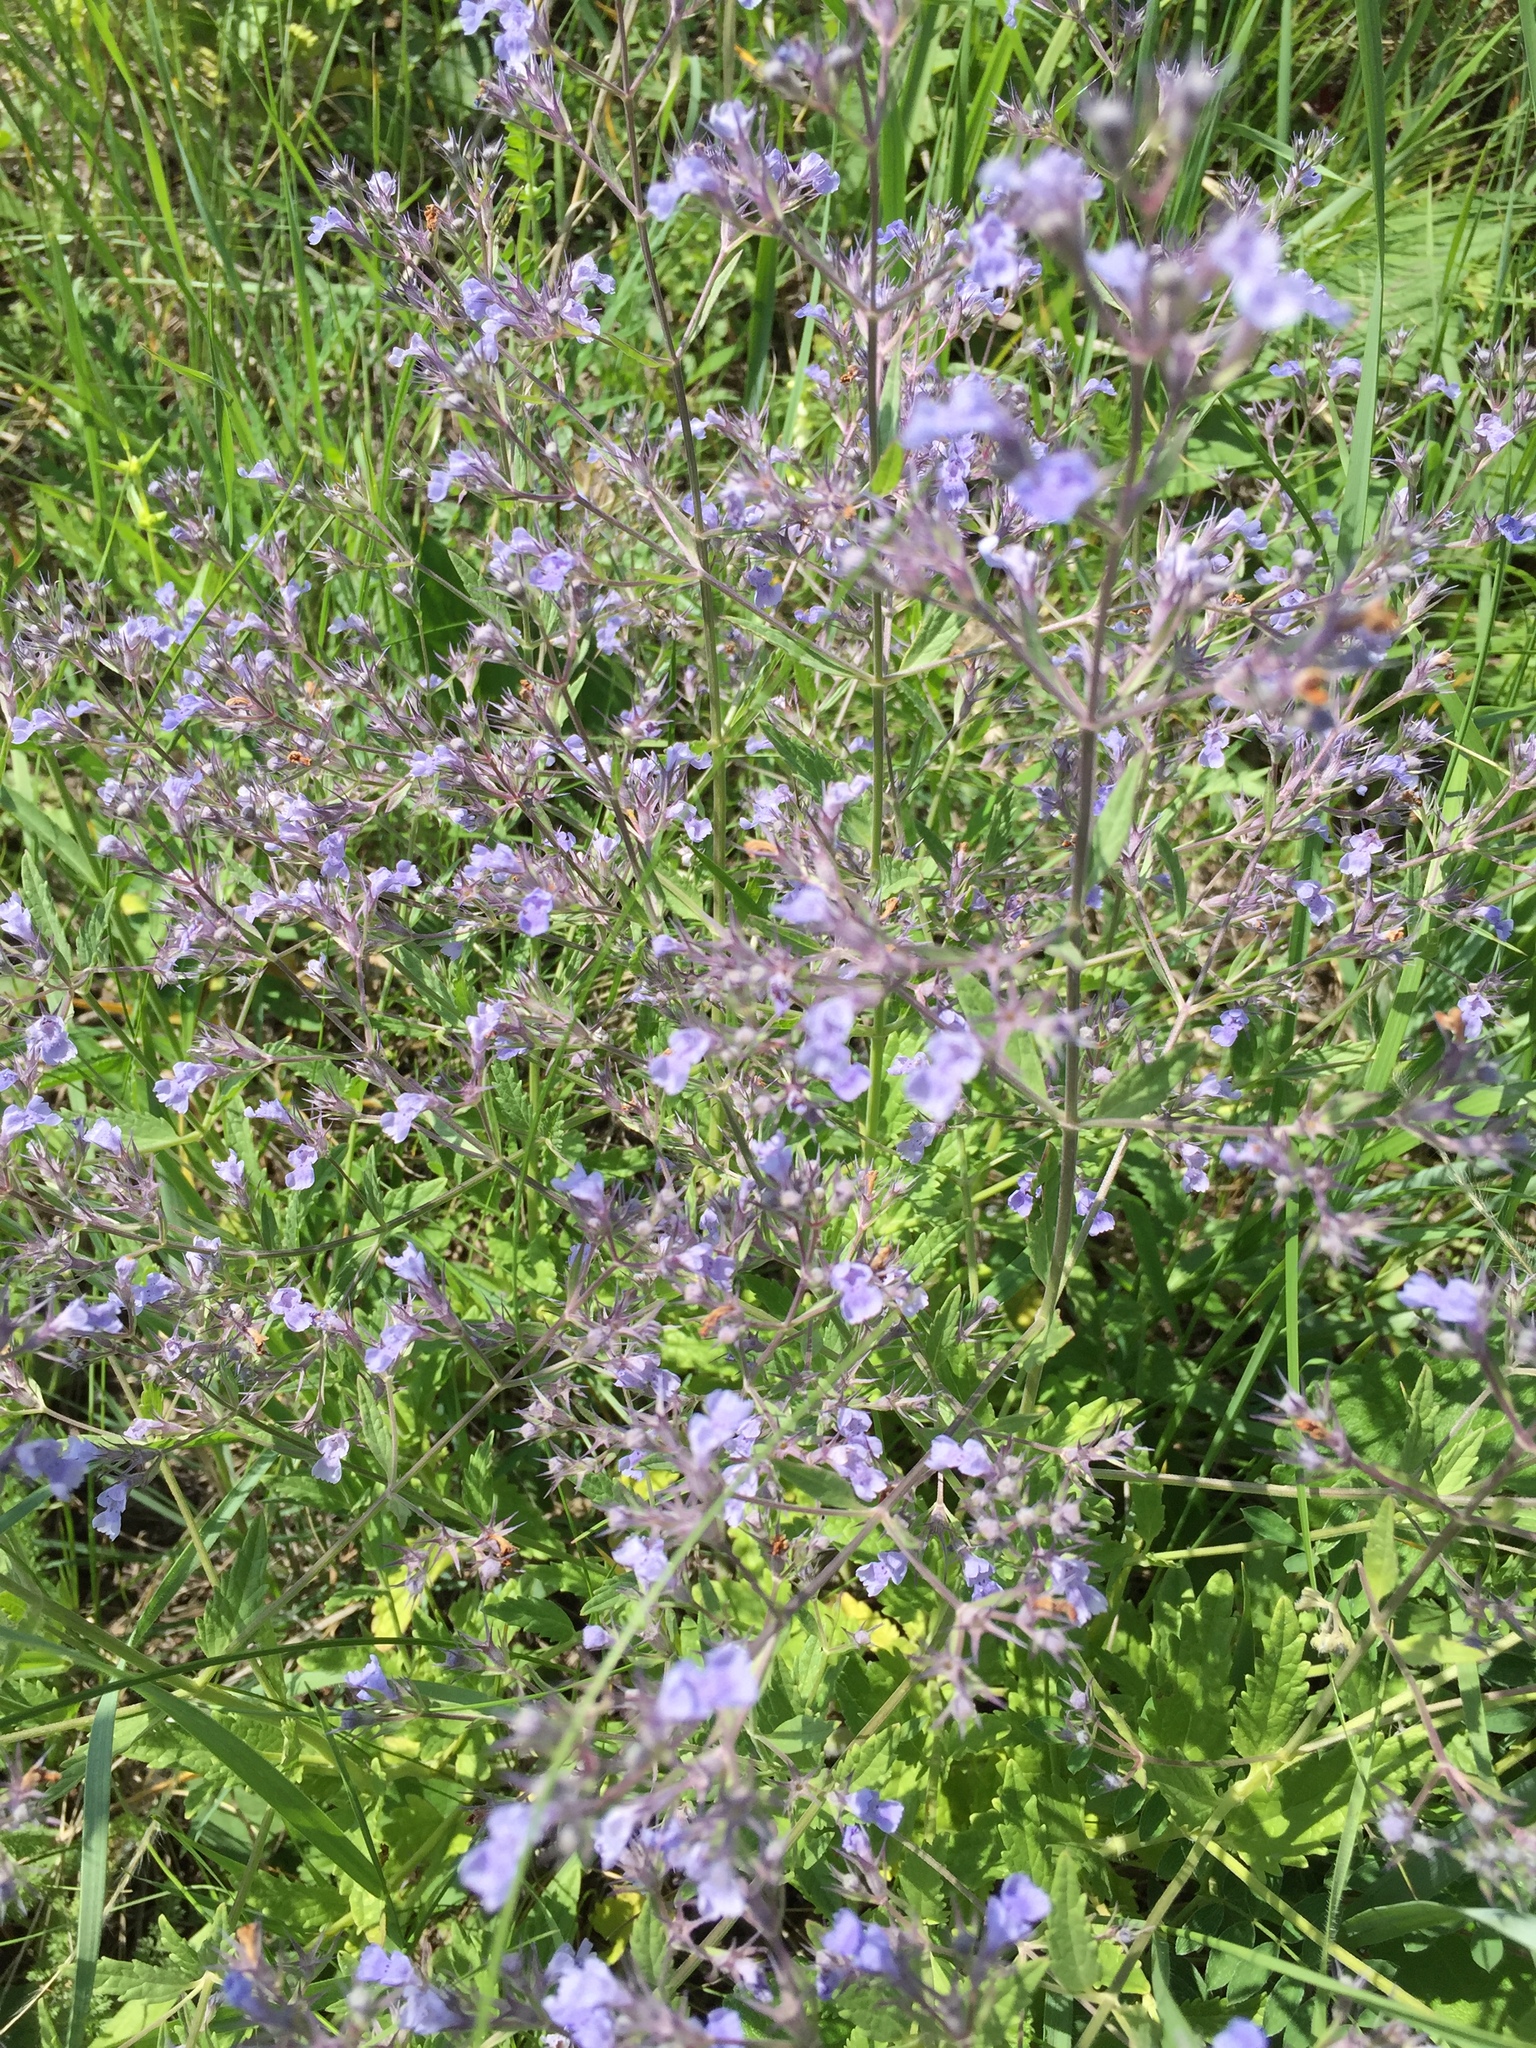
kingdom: Plantae
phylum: Tracheophyta
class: Magnoliopsida
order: Lamiales
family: Lamiaceae
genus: Nepeta
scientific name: Nepeta
